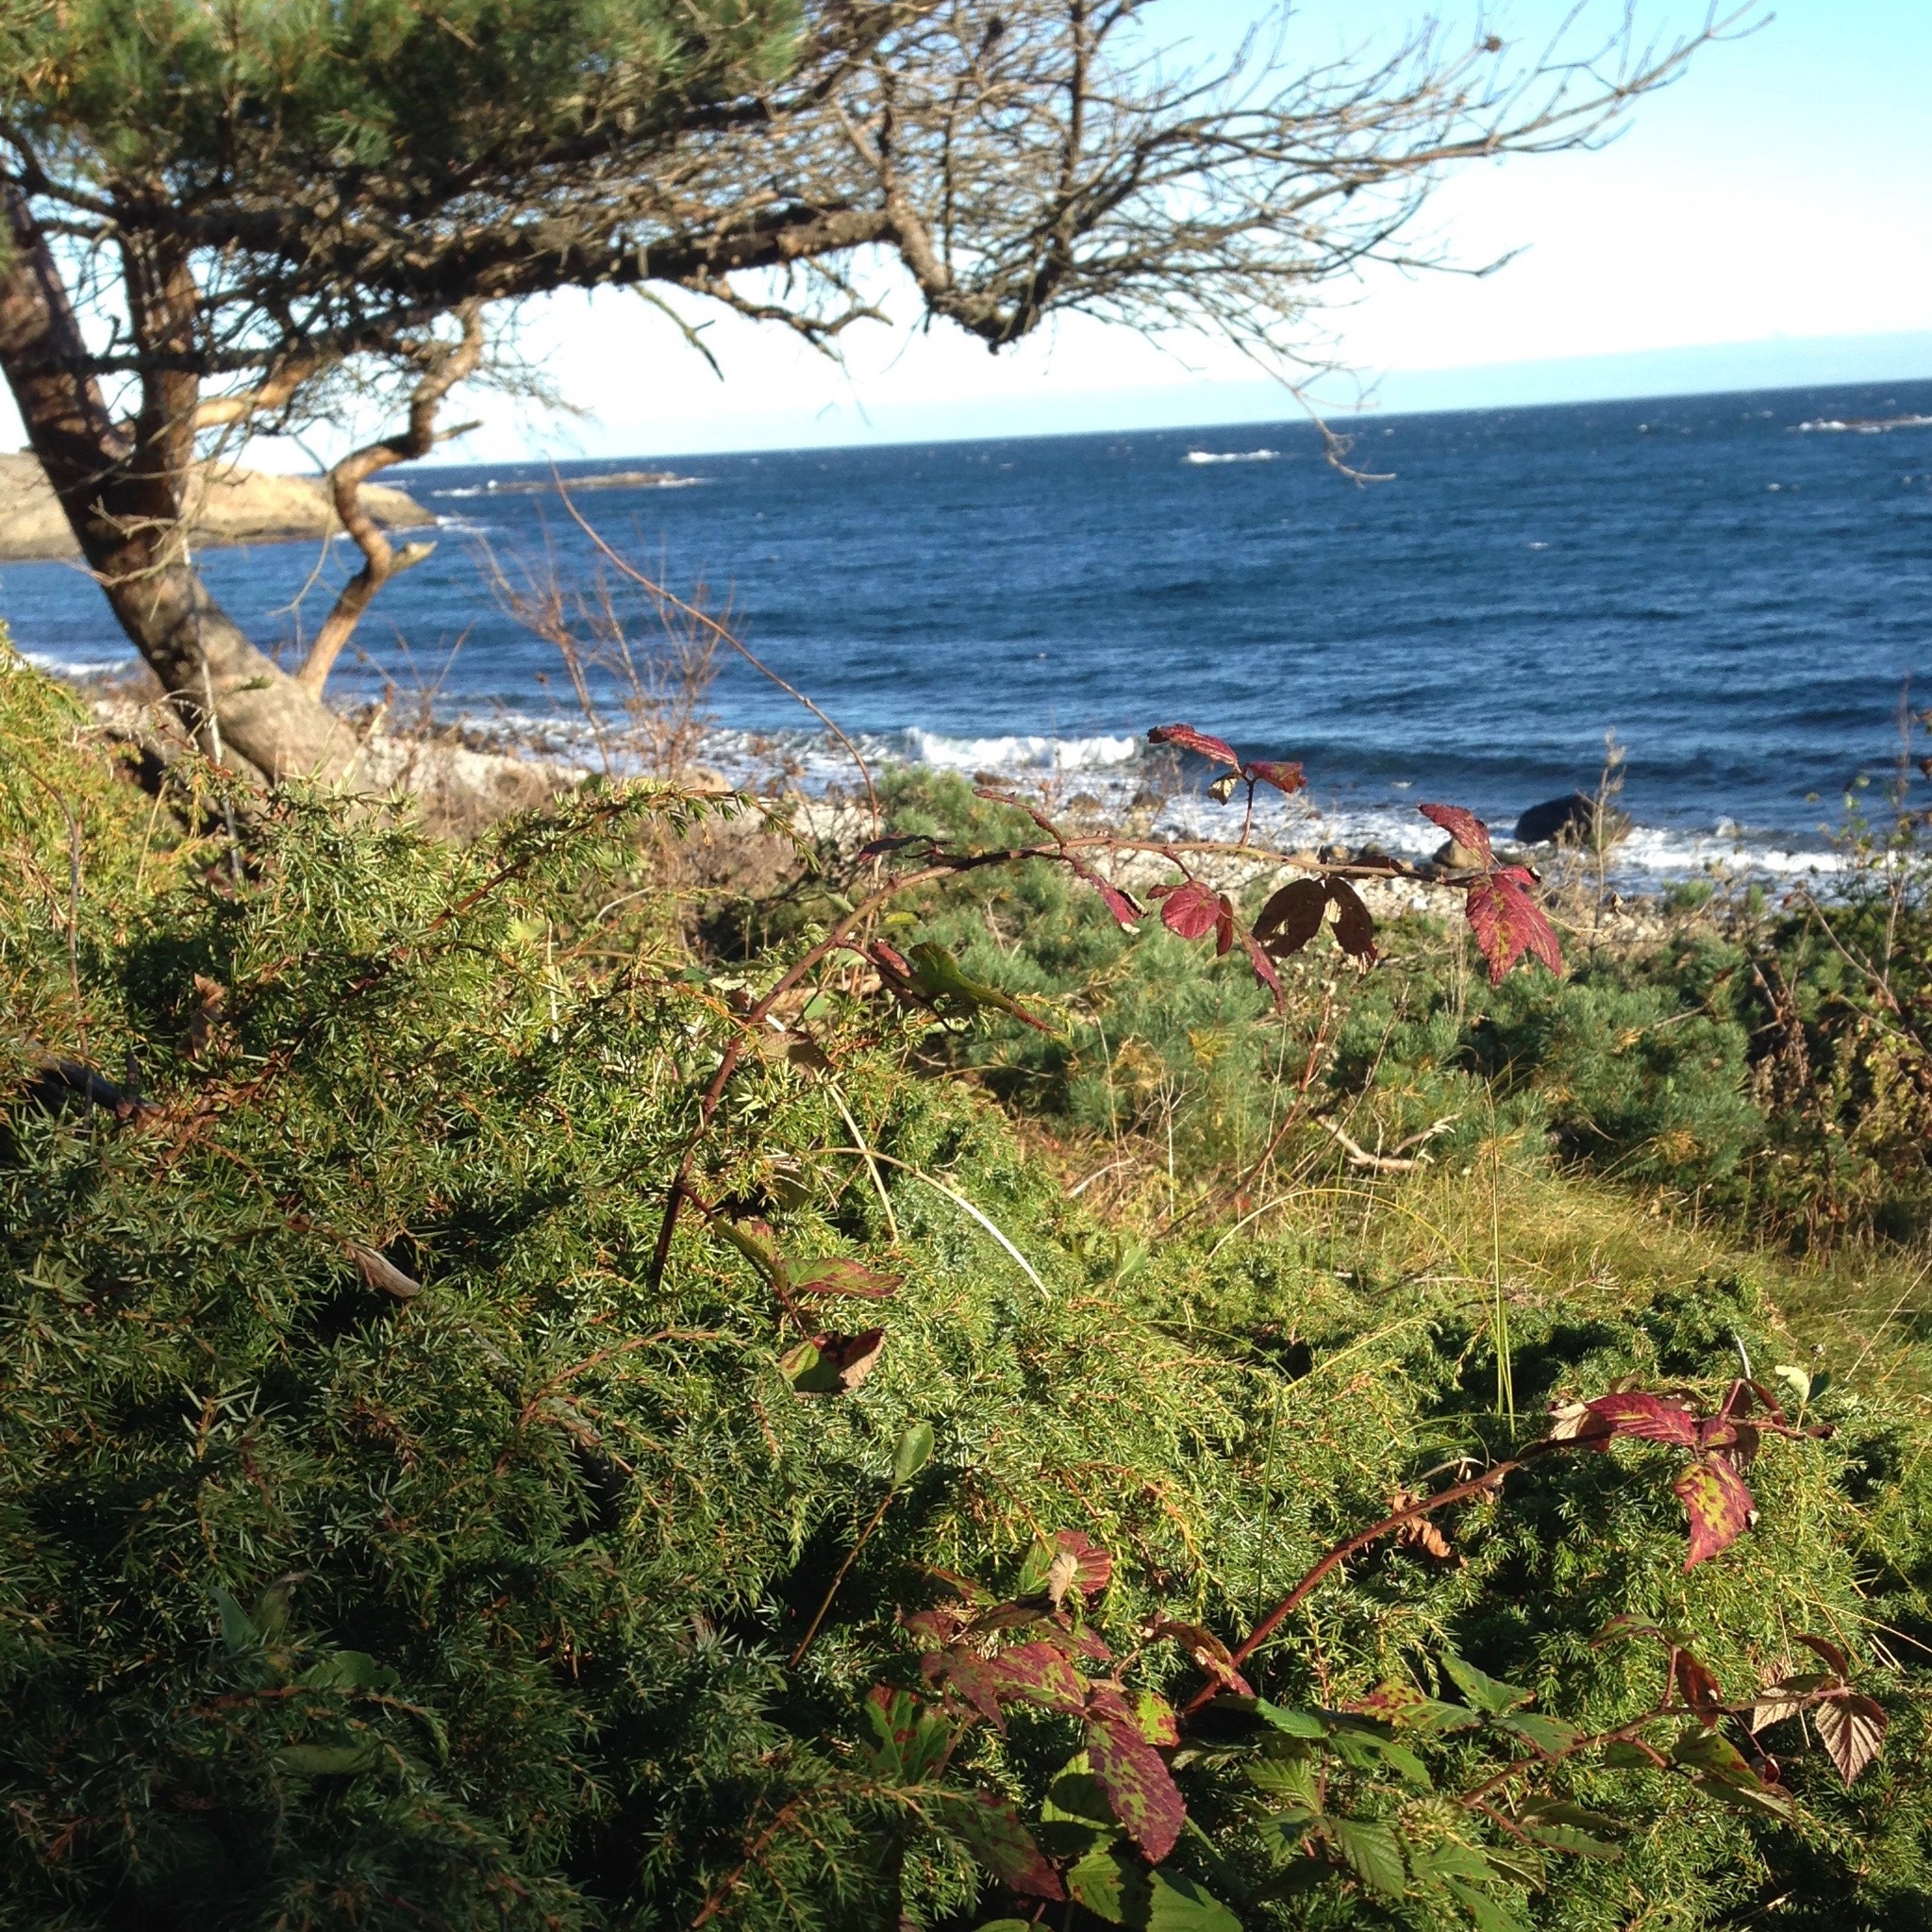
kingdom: Plantae
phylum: Tracheophyta
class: Pinopsida
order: Pinales
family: Cupressaceae
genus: Juniperus
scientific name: Juniperus communis
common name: Common juniper
